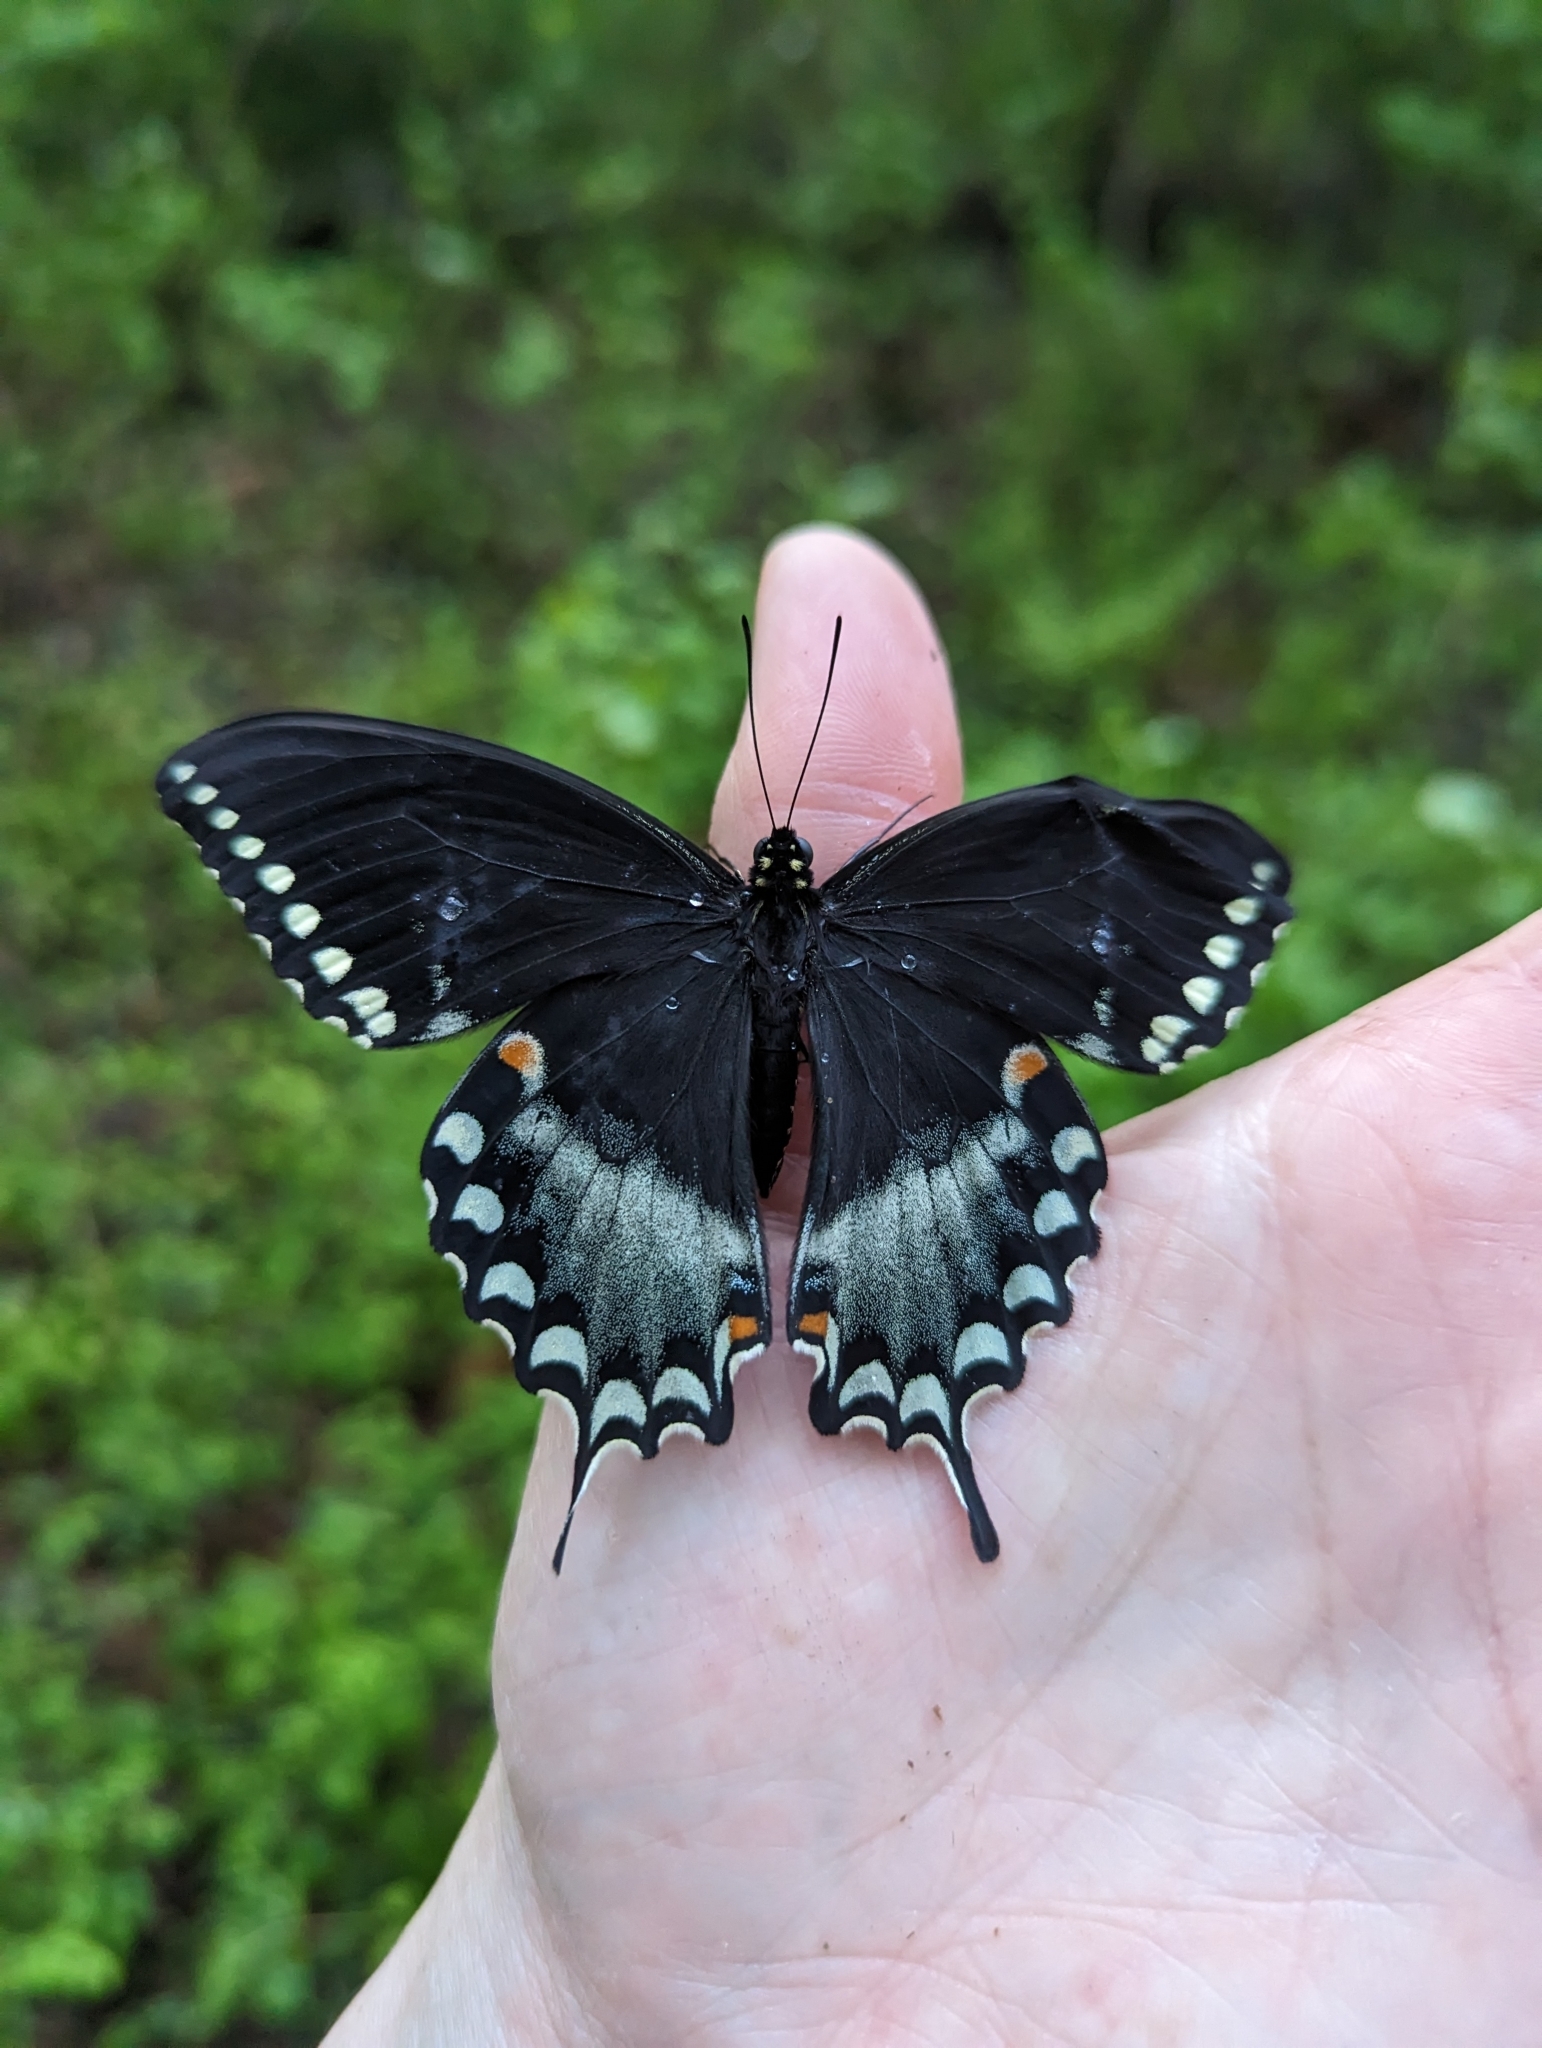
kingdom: Animalia
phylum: Arthropoda
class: Insecta
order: Lepidoptera
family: Papilionidae
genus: Papilio
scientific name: Papilio troilus
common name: Spicebush swallowtail
